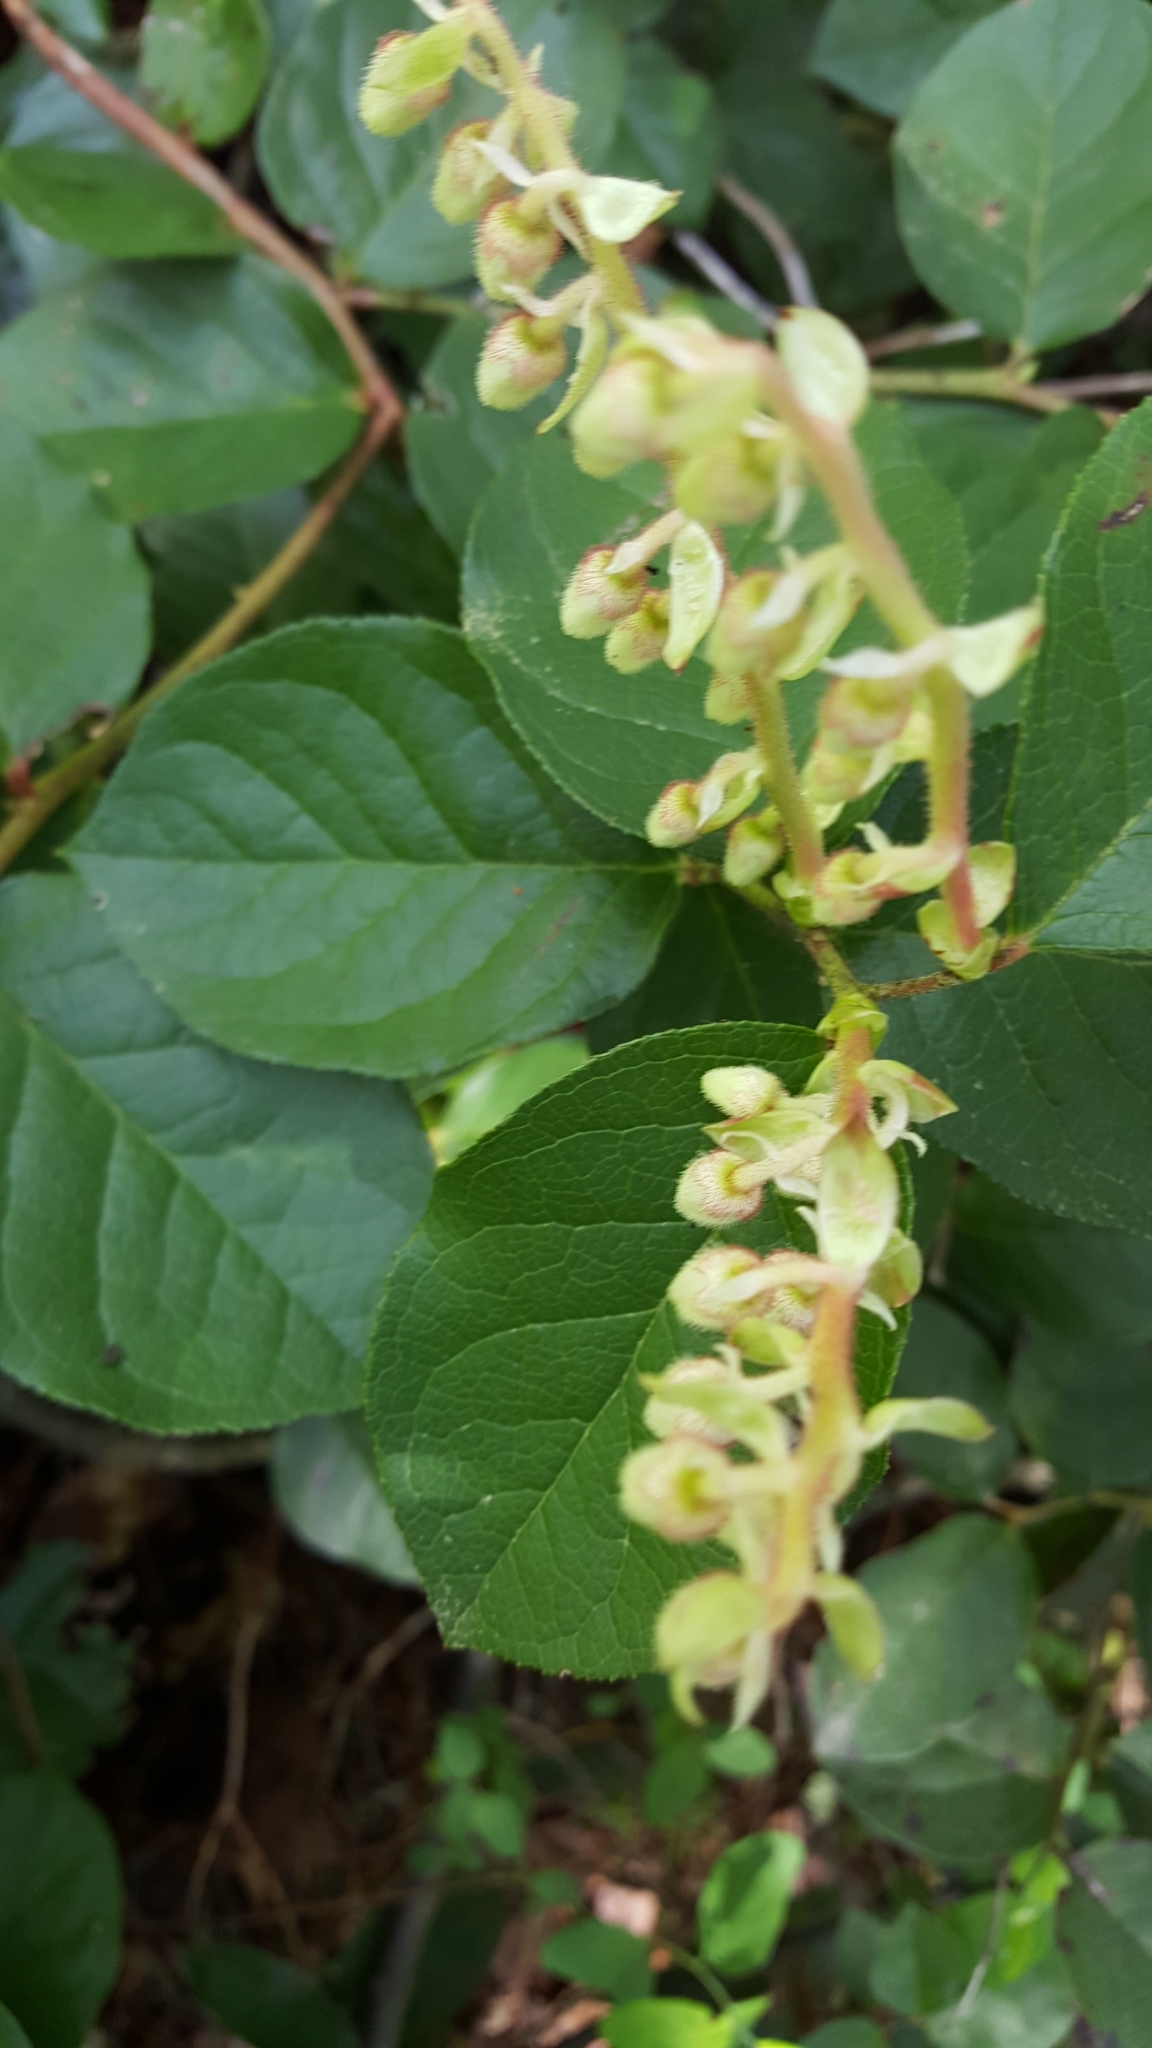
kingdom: Plantae
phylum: Tracheophyta
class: Magnoliopsida
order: Ericales
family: Ericaceae
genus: Gaultheria
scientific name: Gaultheria shallon
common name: Shallon
